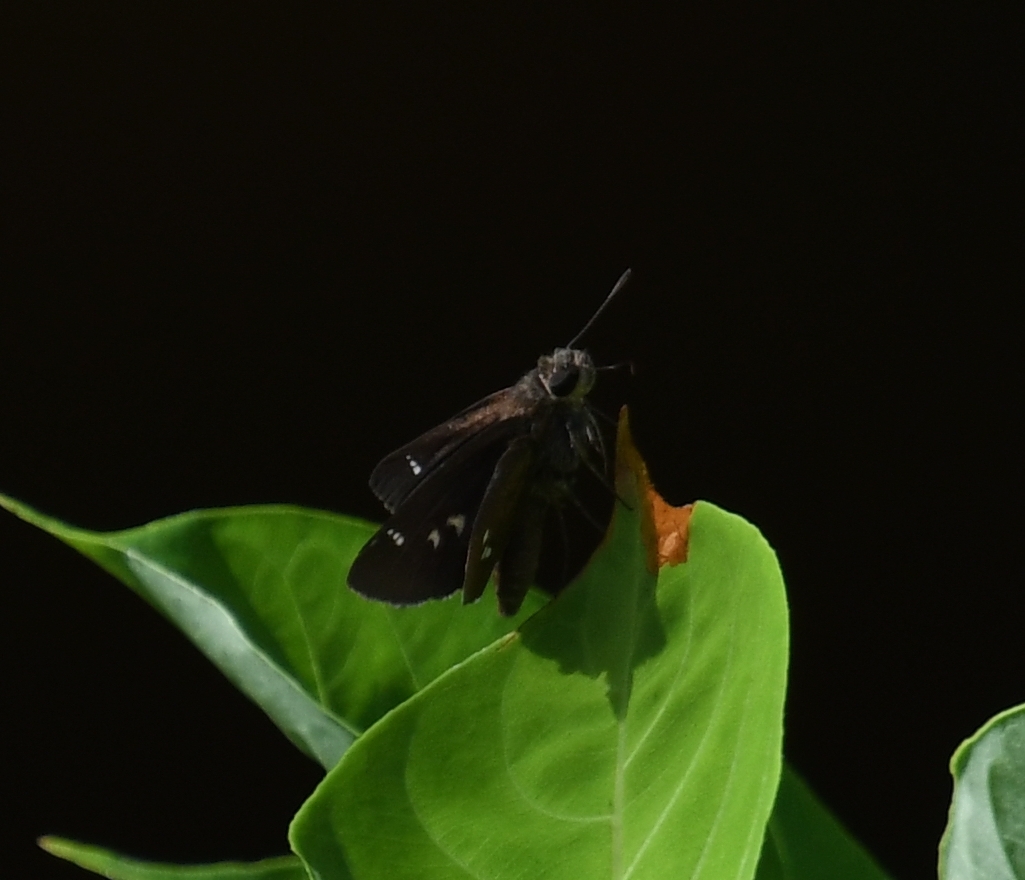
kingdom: Animalia
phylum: Arthropoda
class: Insecta
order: Lepidoptera
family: Hesperiidae
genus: Oligoria
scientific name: Oligoria maculata
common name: Twin-spot skipper
